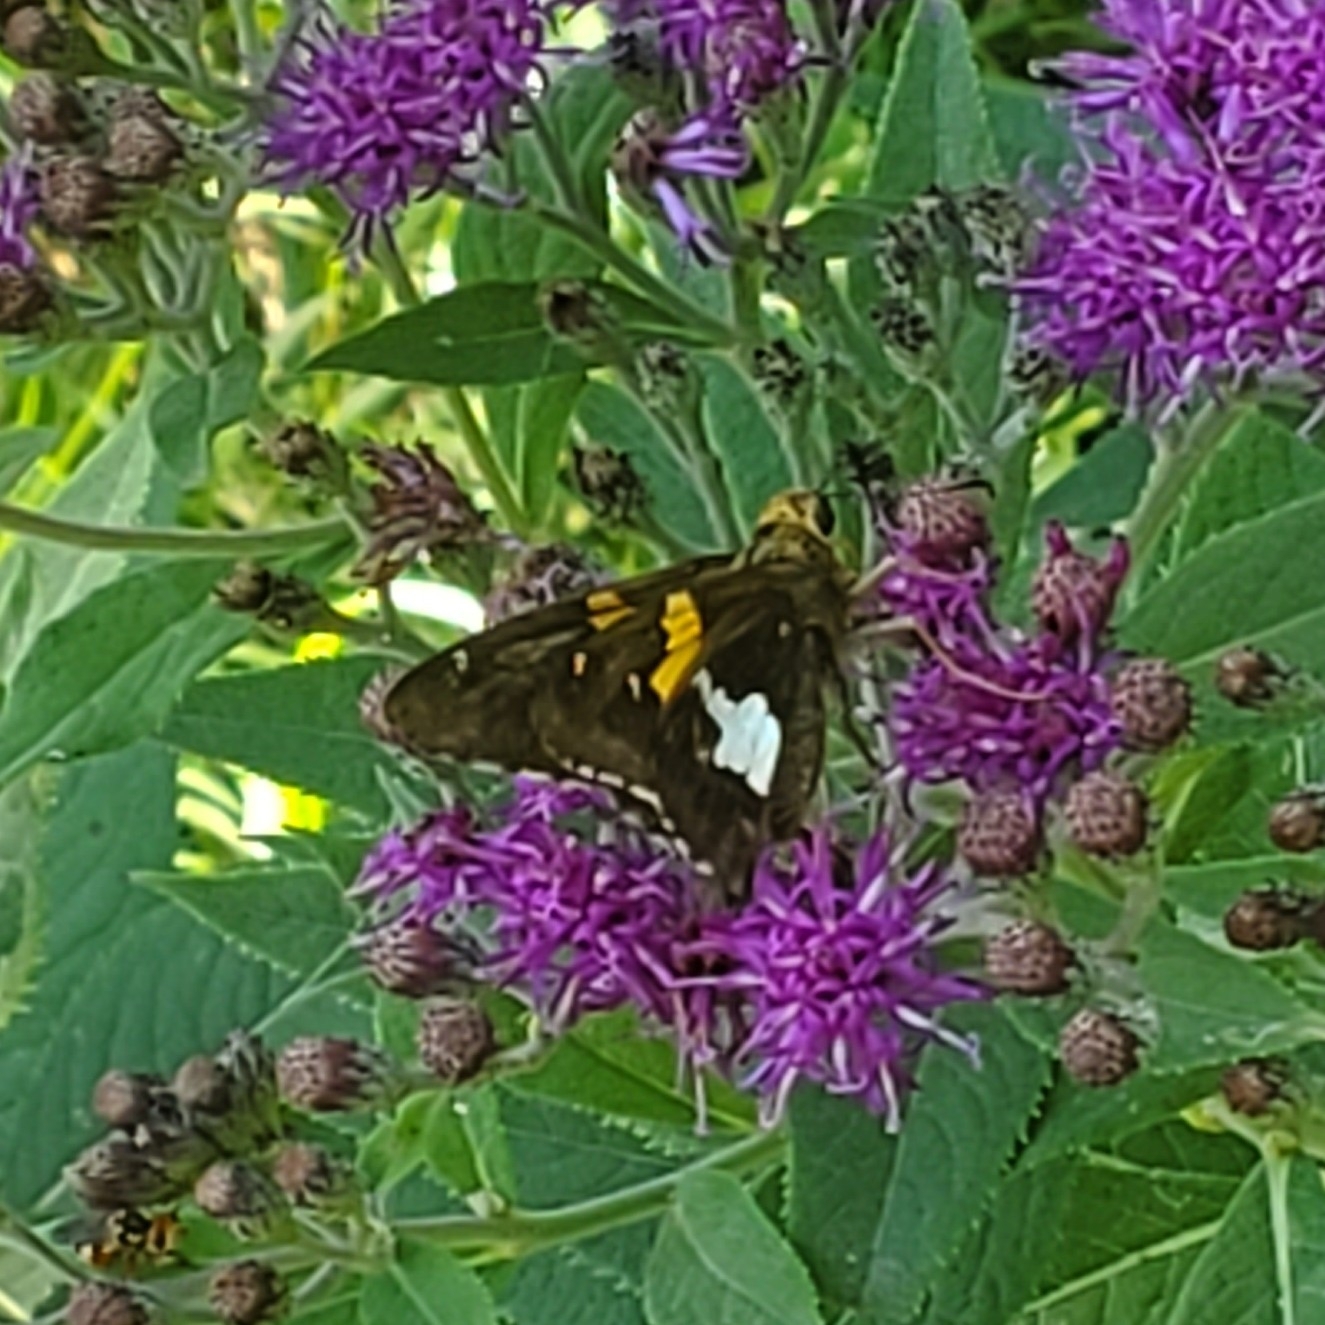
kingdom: Animalia
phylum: Arthropoda
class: Insecta
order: Lepidoptera
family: Hesperiidae
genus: Epargyreus
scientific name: Epargyreus clarus
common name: Silver-spotted skipper
